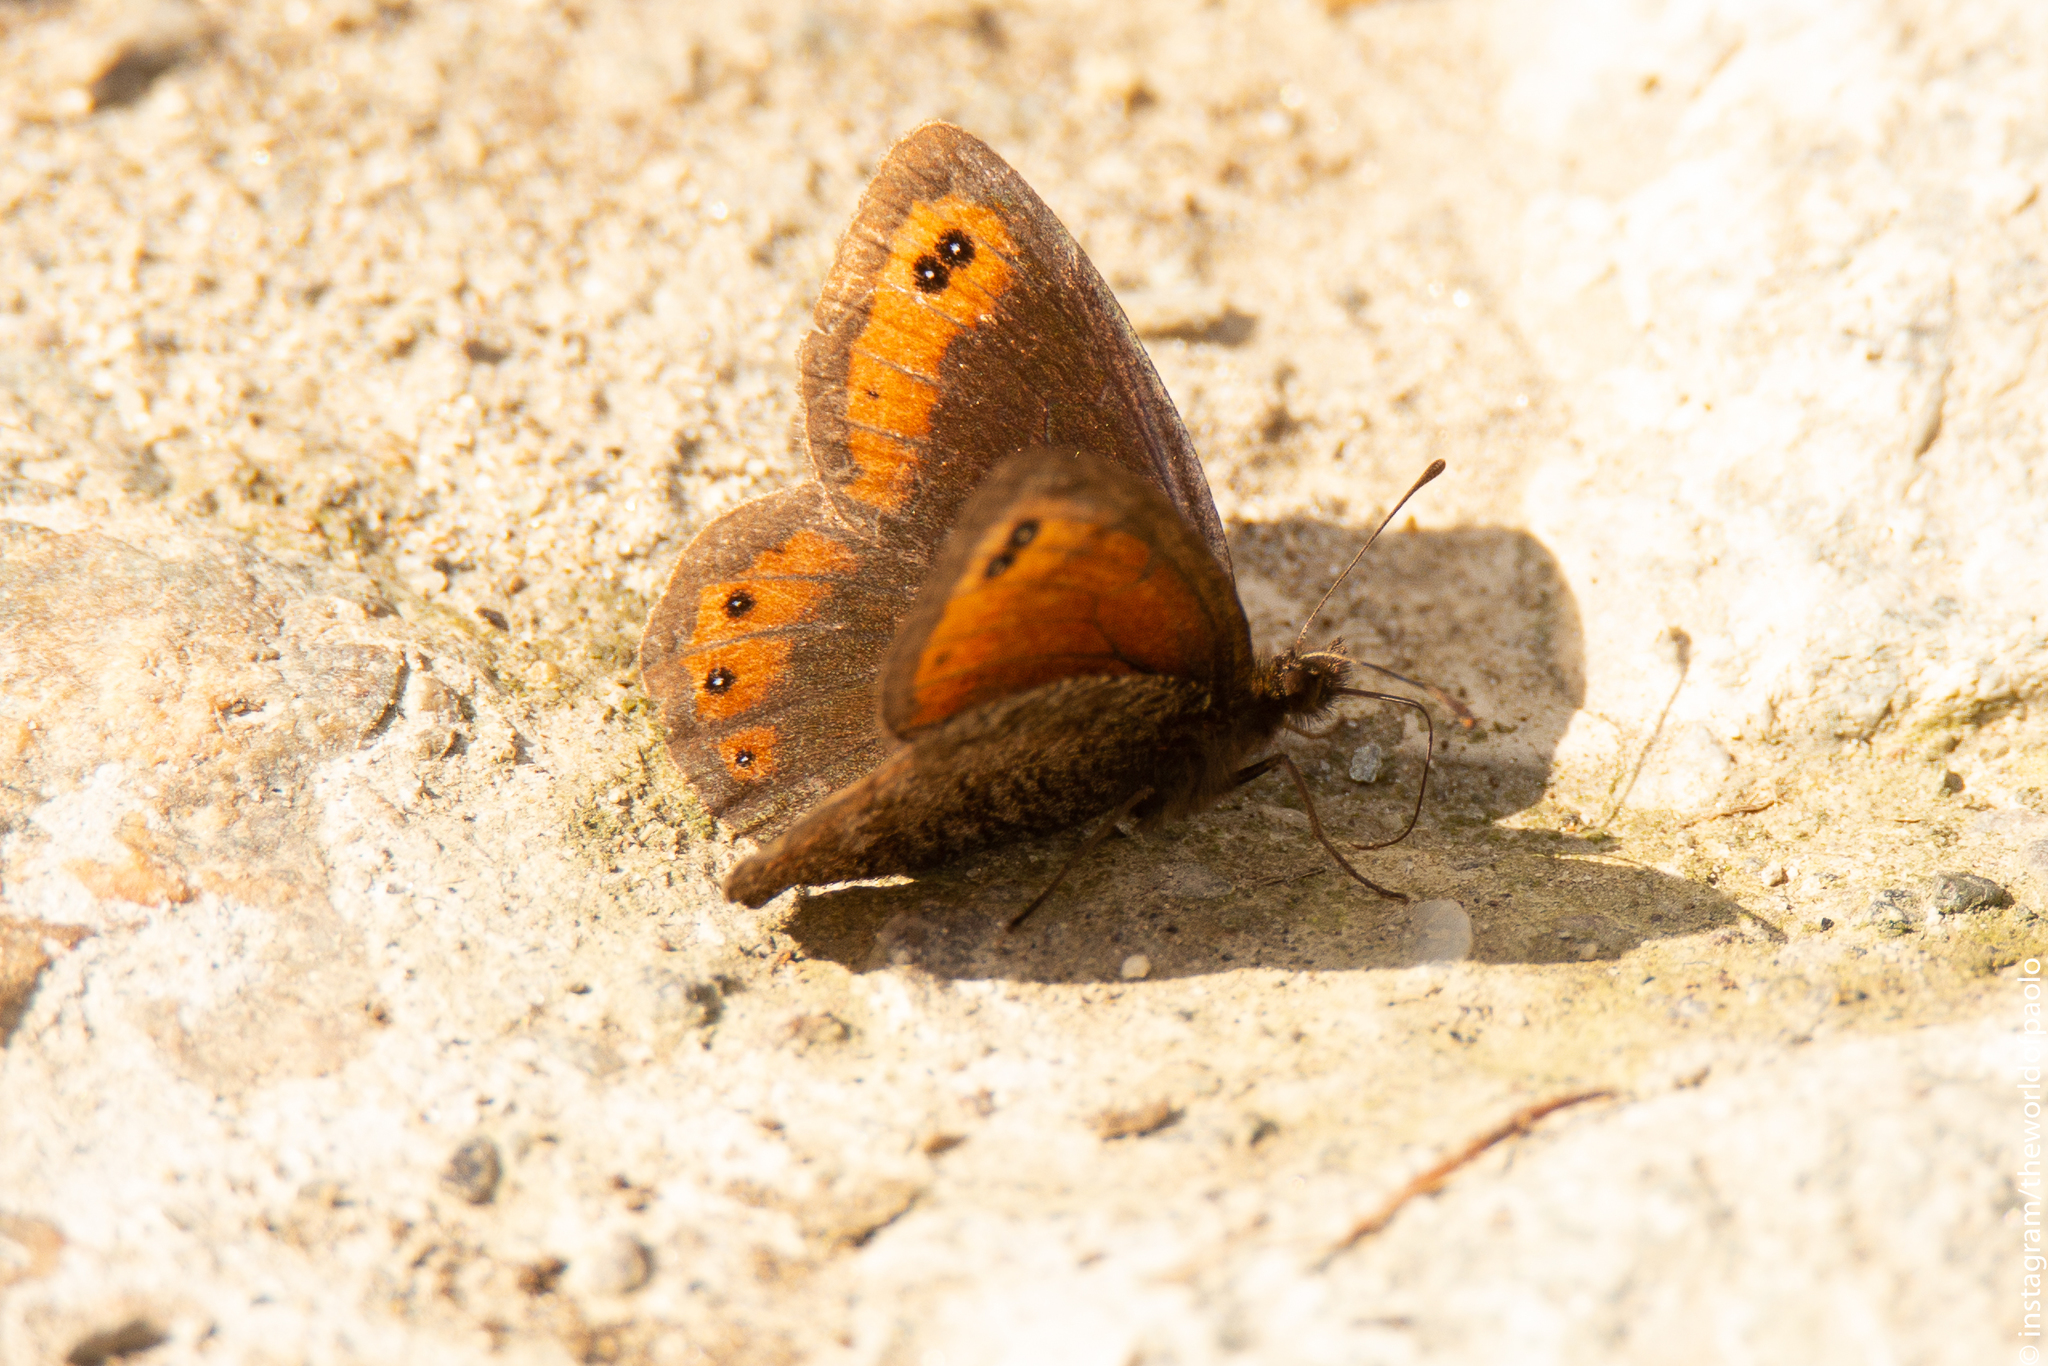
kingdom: Animalia
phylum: Arthropoda
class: Insecta
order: Lepidoptera
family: Nymphalidae
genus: Erebia
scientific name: Erebia montanus
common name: Marbled ringlet
